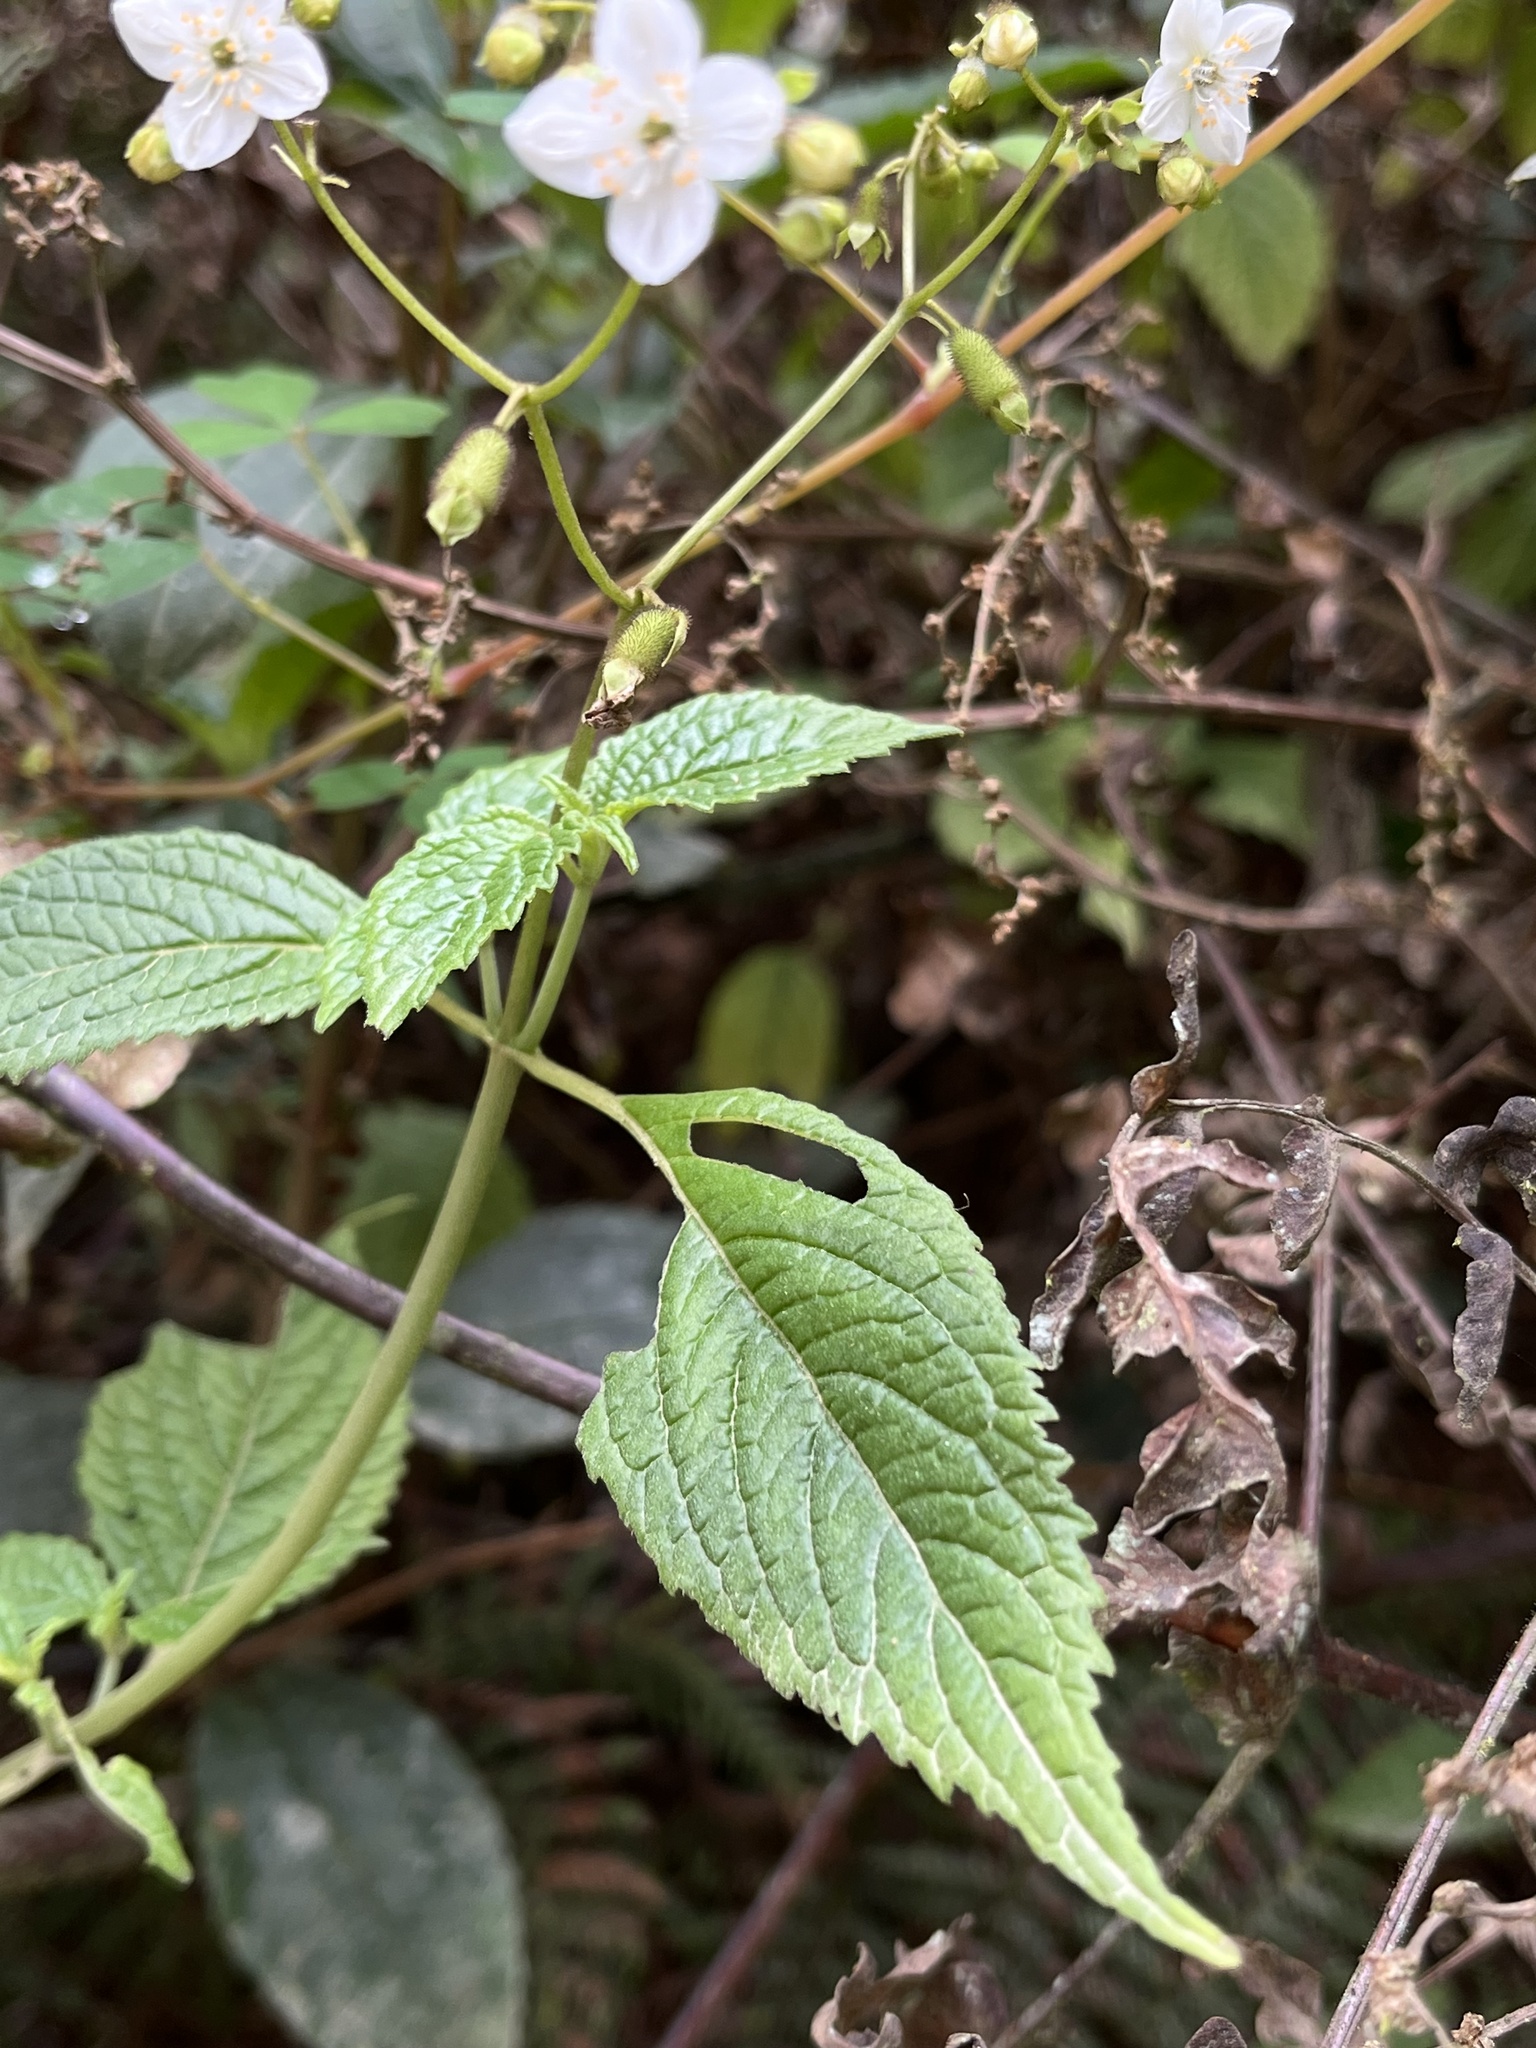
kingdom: Plantae
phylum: Tracheophyta
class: Magnoliopsida
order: Cornales
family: Loasaceae
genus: Klaprothia
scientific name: Klaprothia mentzelioides
